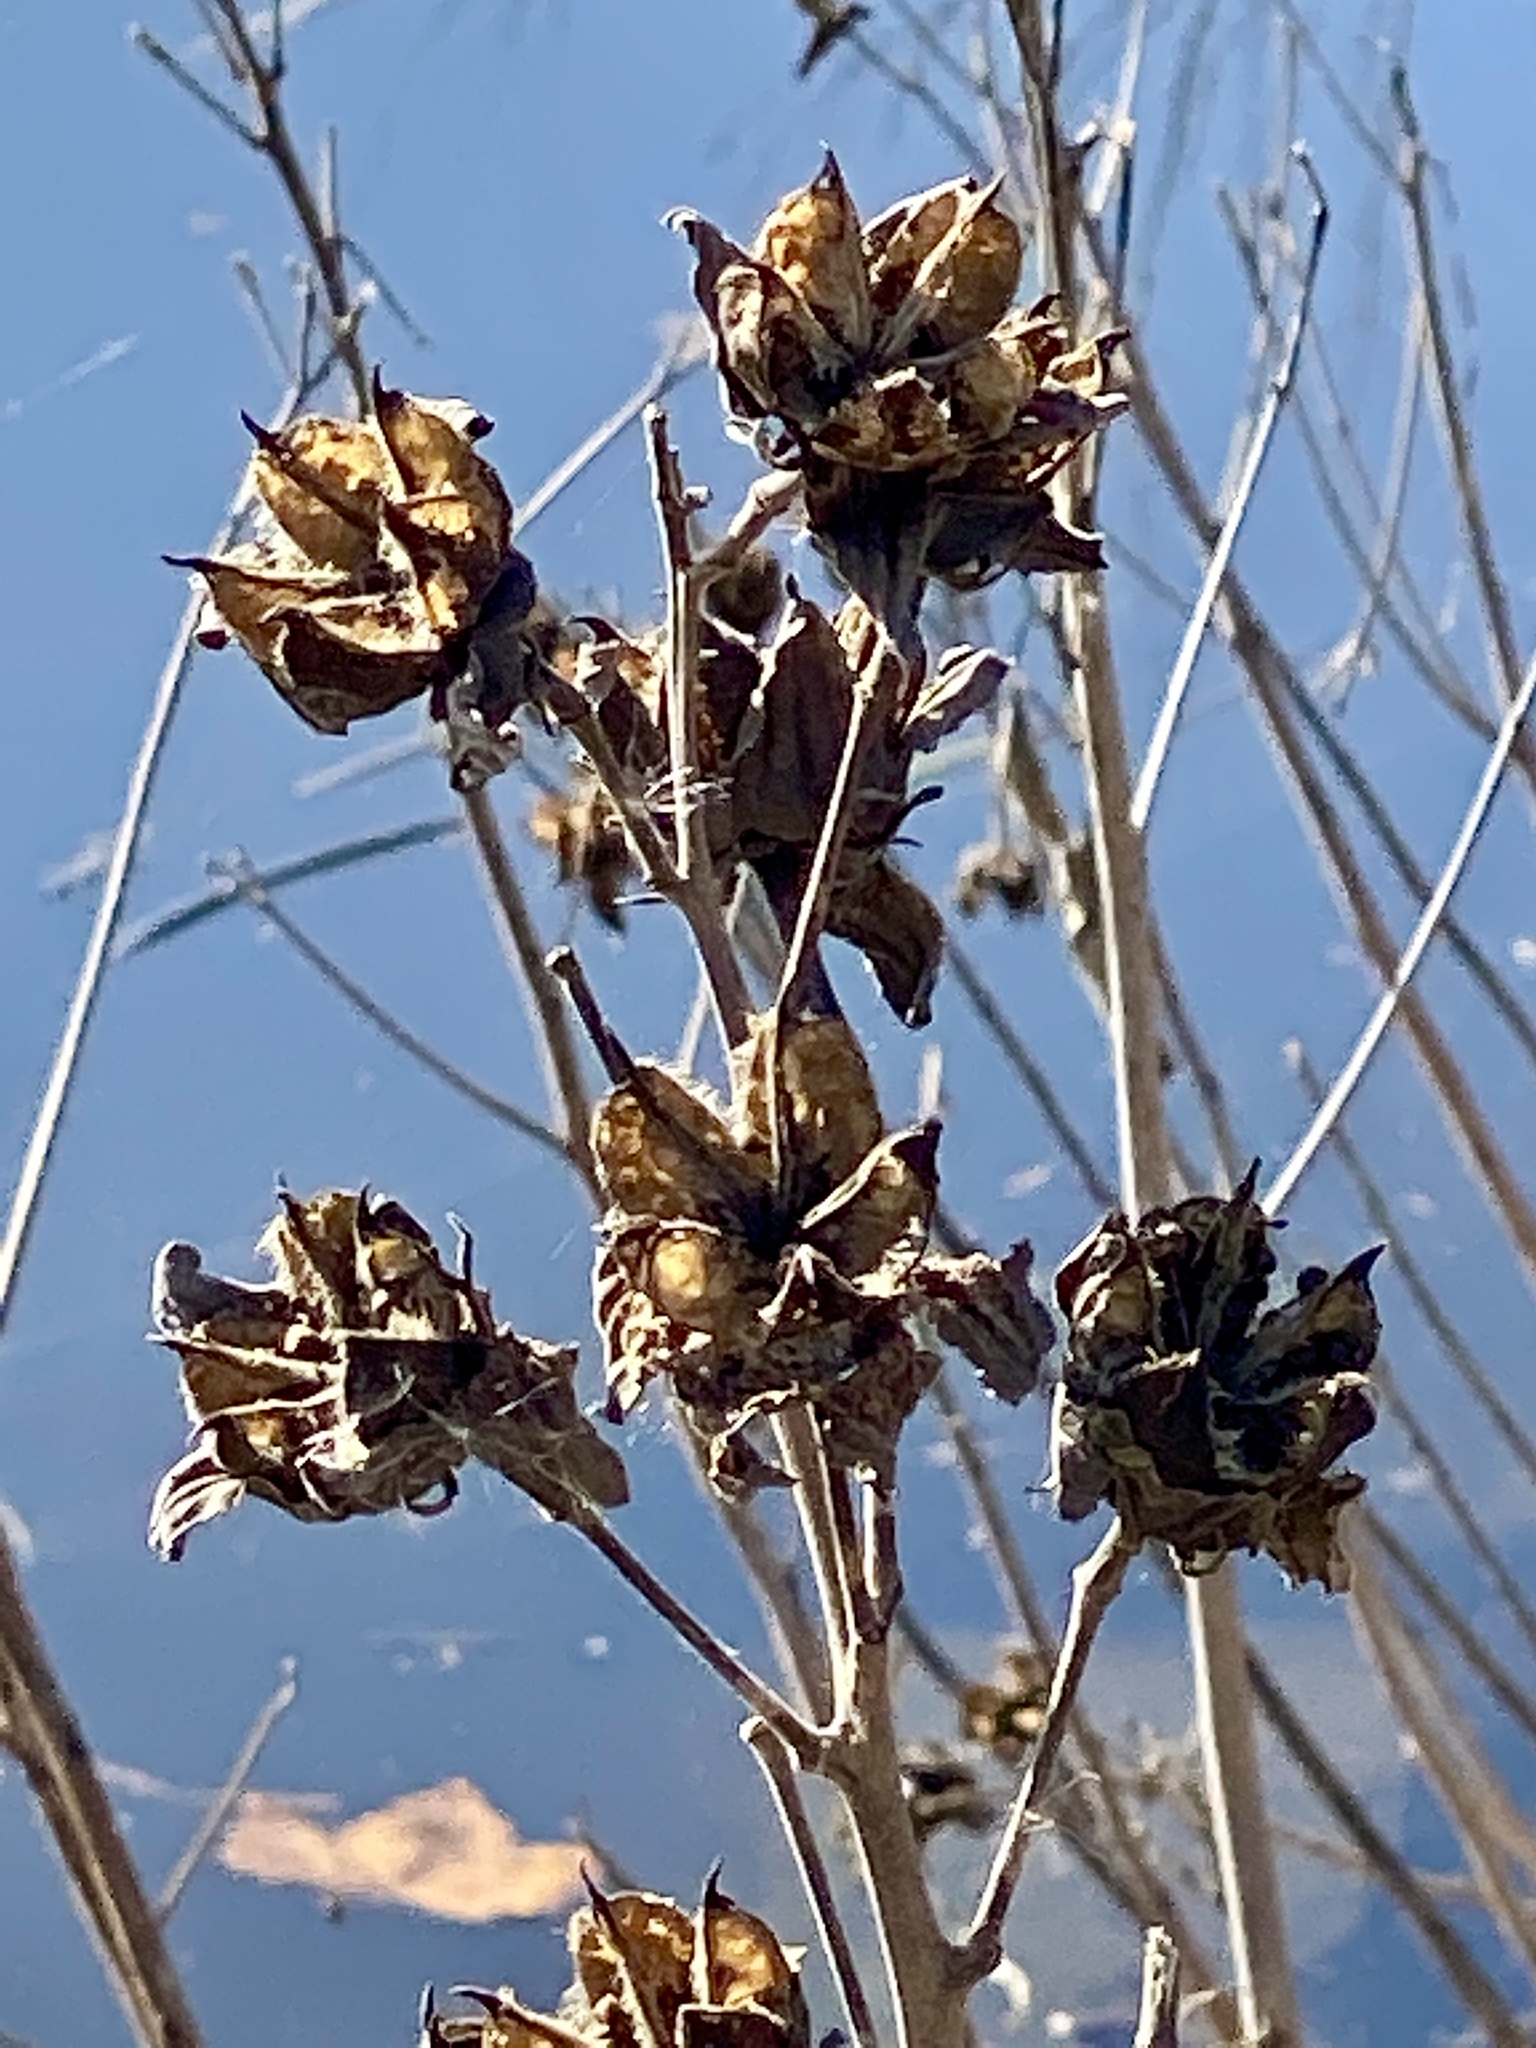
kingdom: Plantae
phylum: Tracheophyta
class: Magnoliopsida
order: Malvales
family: Malvaceae
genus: Hibiscus
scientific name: Hibiscus moscheutos
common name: Common rose-mallow
